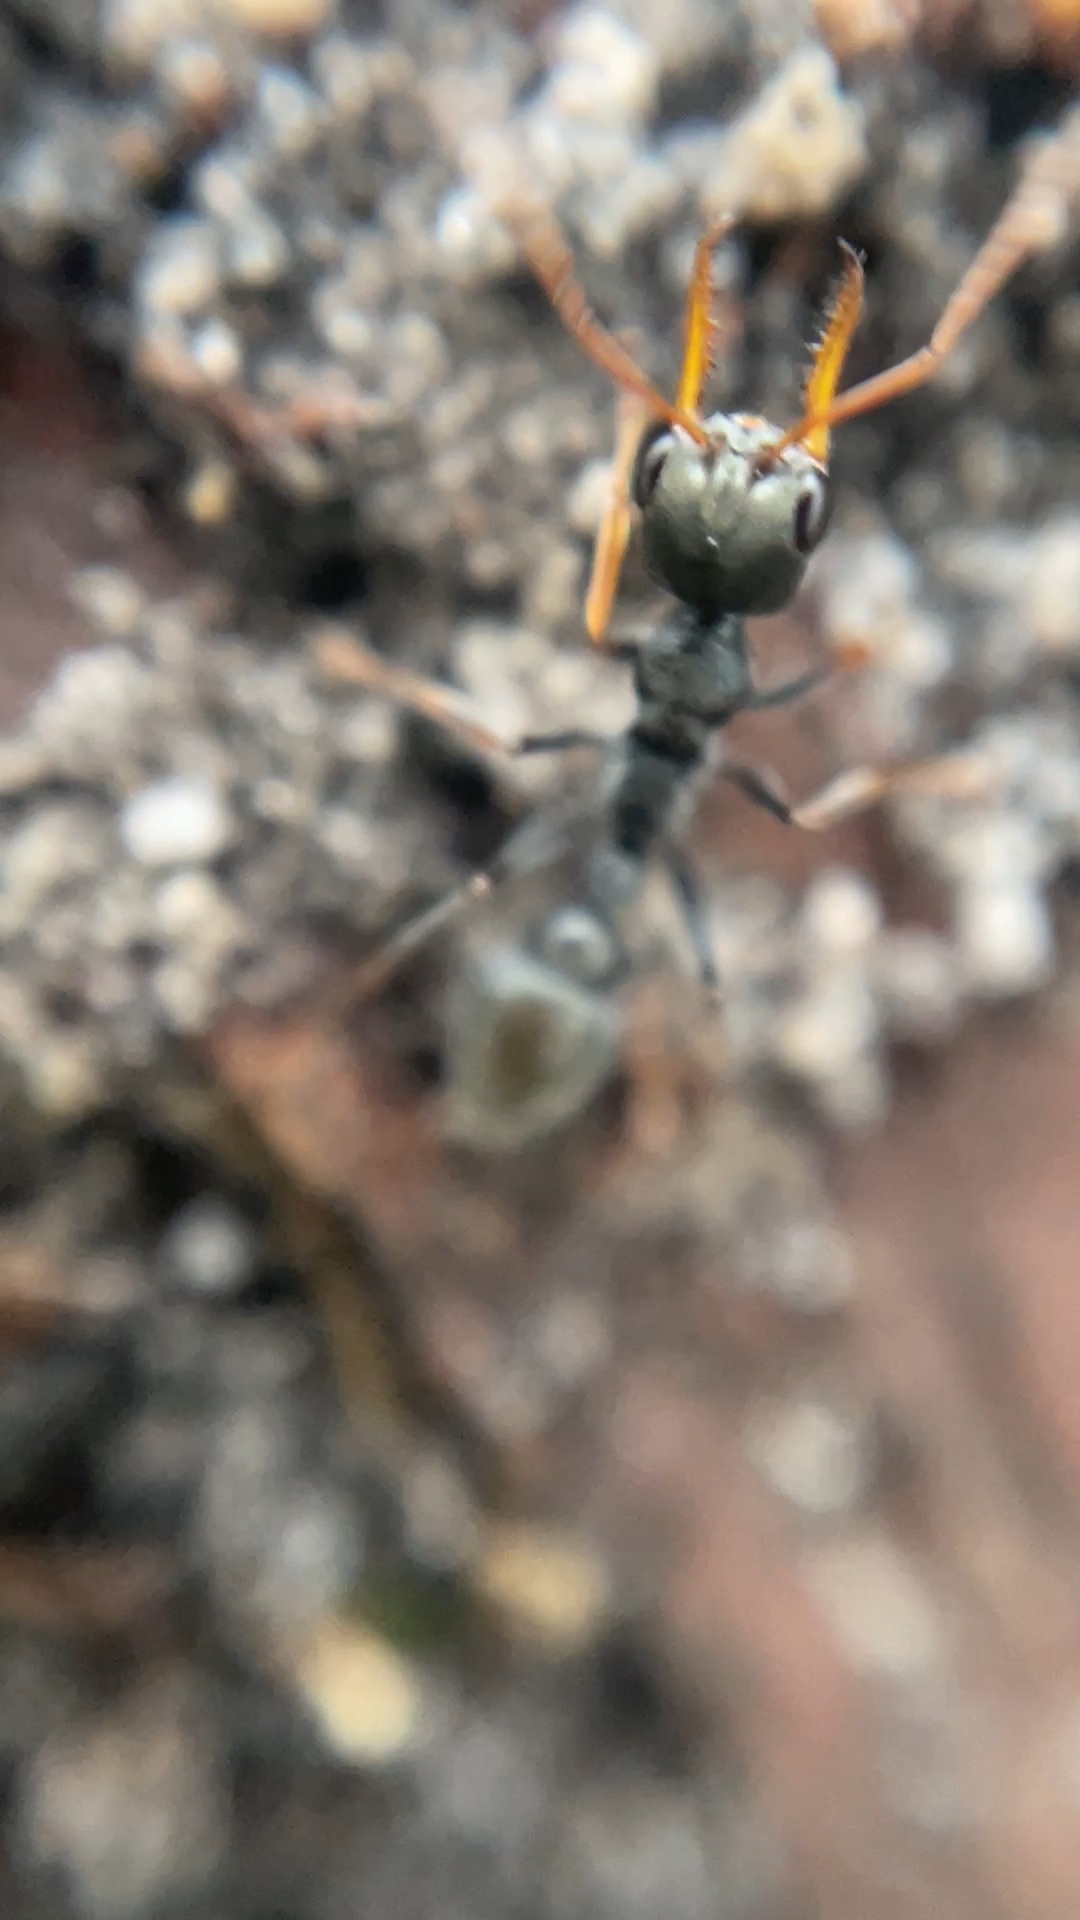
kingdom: Animalia
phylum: Arthropoda
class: Insecta
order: Hymenoptera
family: Formicidae
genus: Myrmecia
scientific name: Myrmecia pilosula
